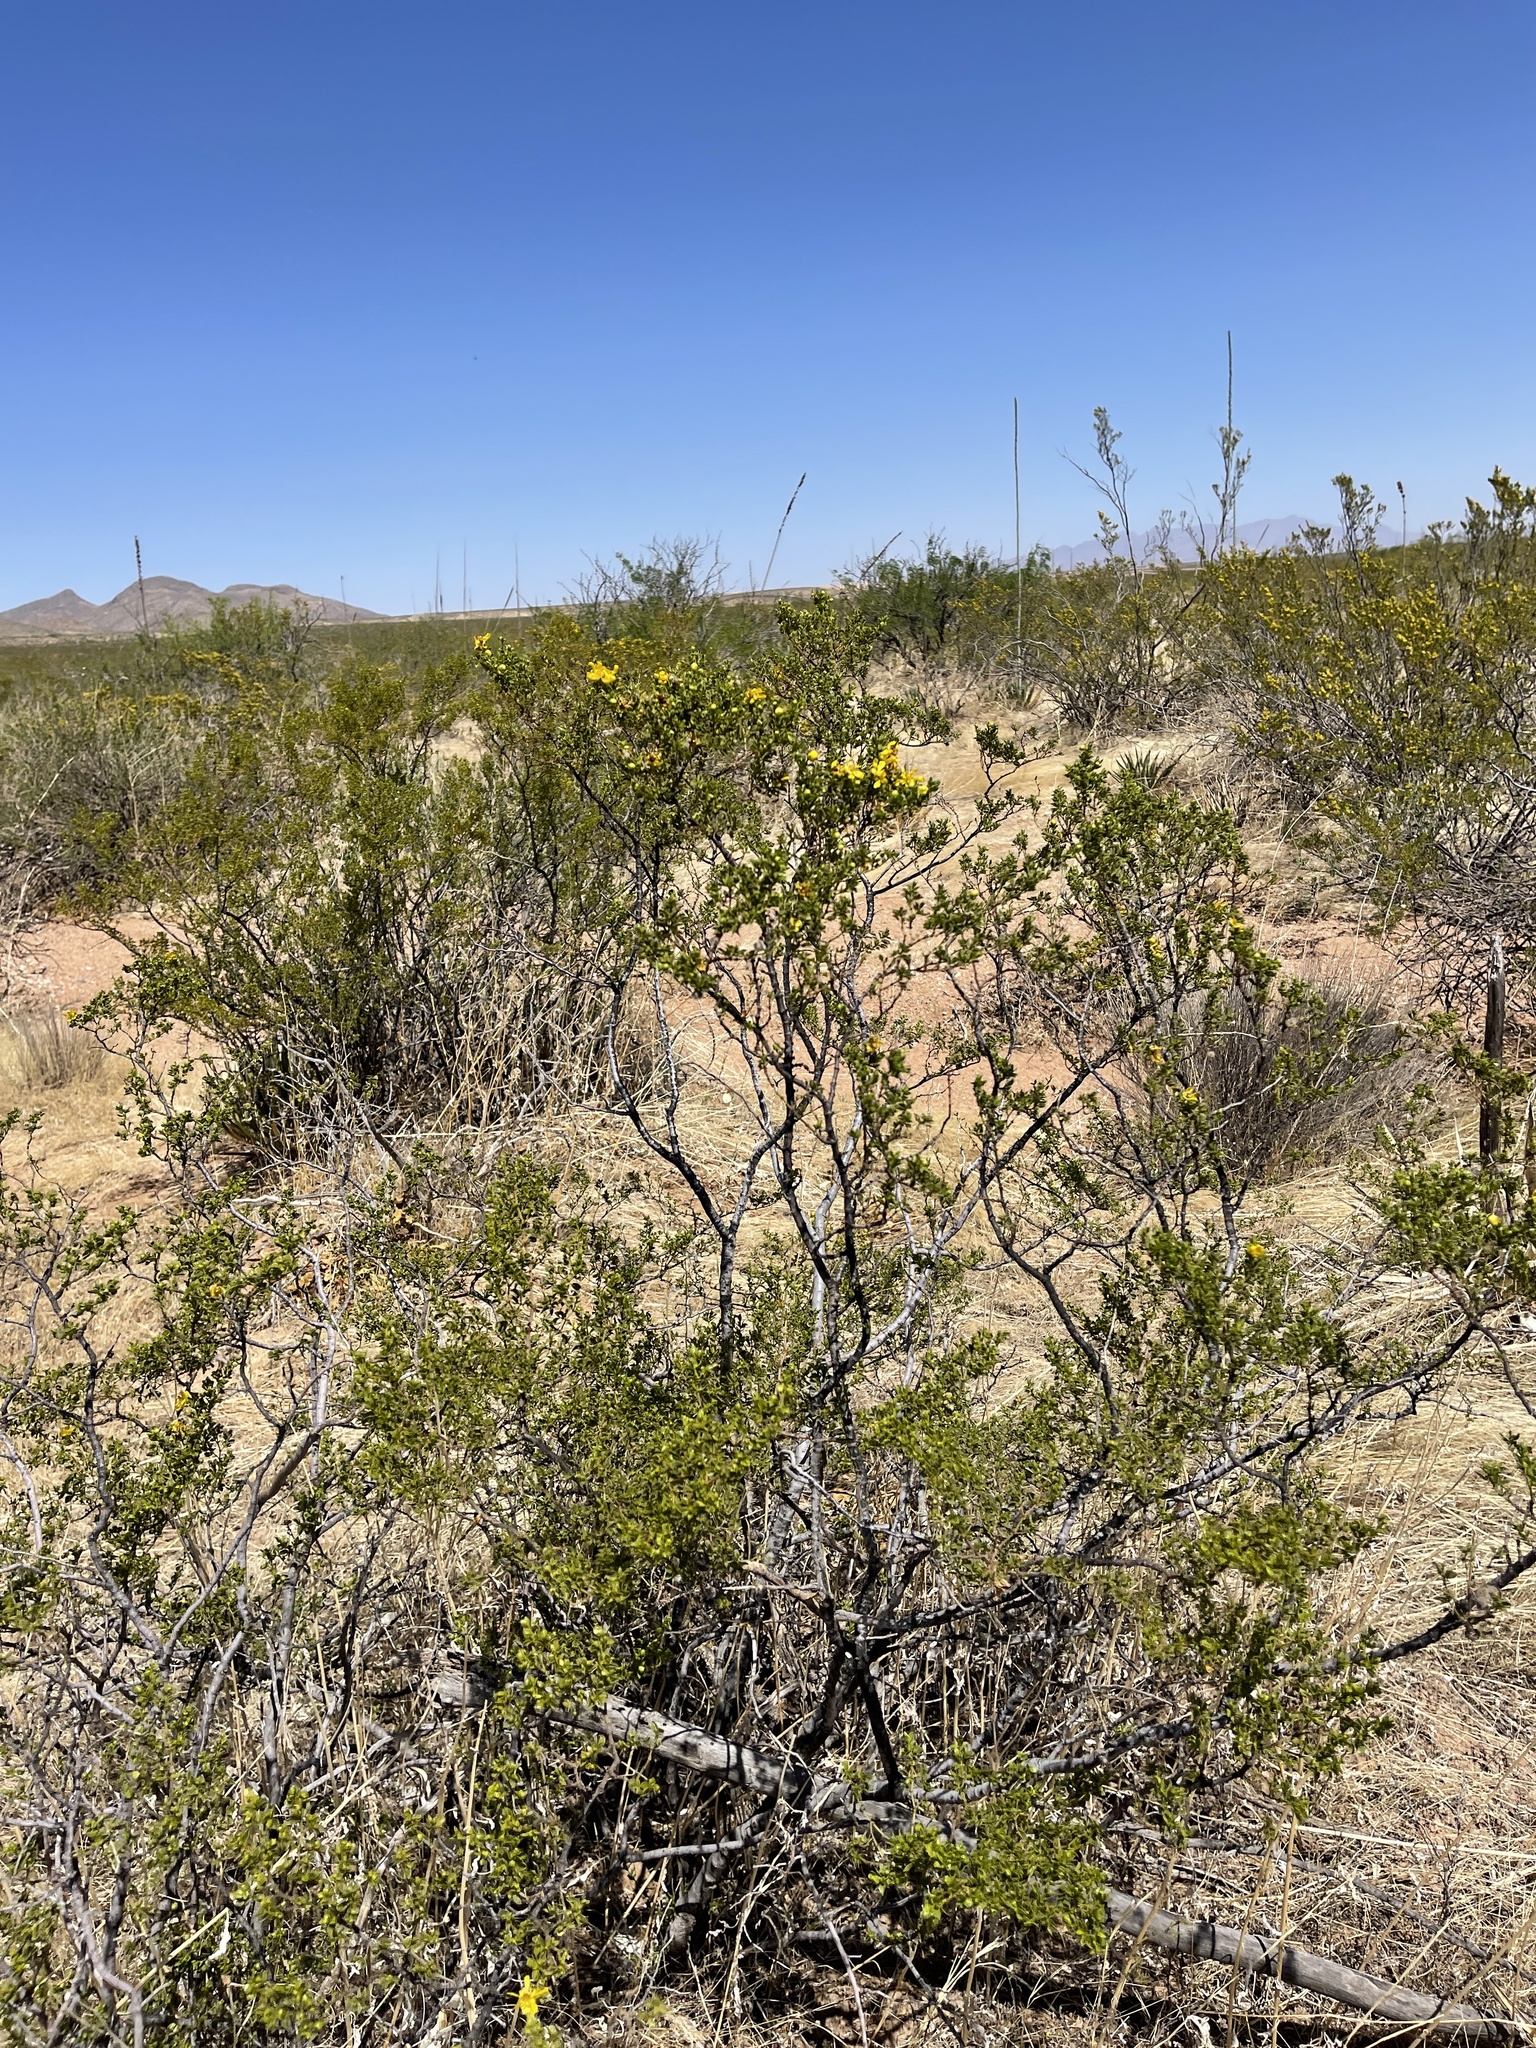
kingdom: Plantae
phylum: Tracheophyta
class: Magnoliopsida
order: Zygophyllales
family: Zygophyllaceae
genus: Larrea
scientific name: Larrea tridentata
